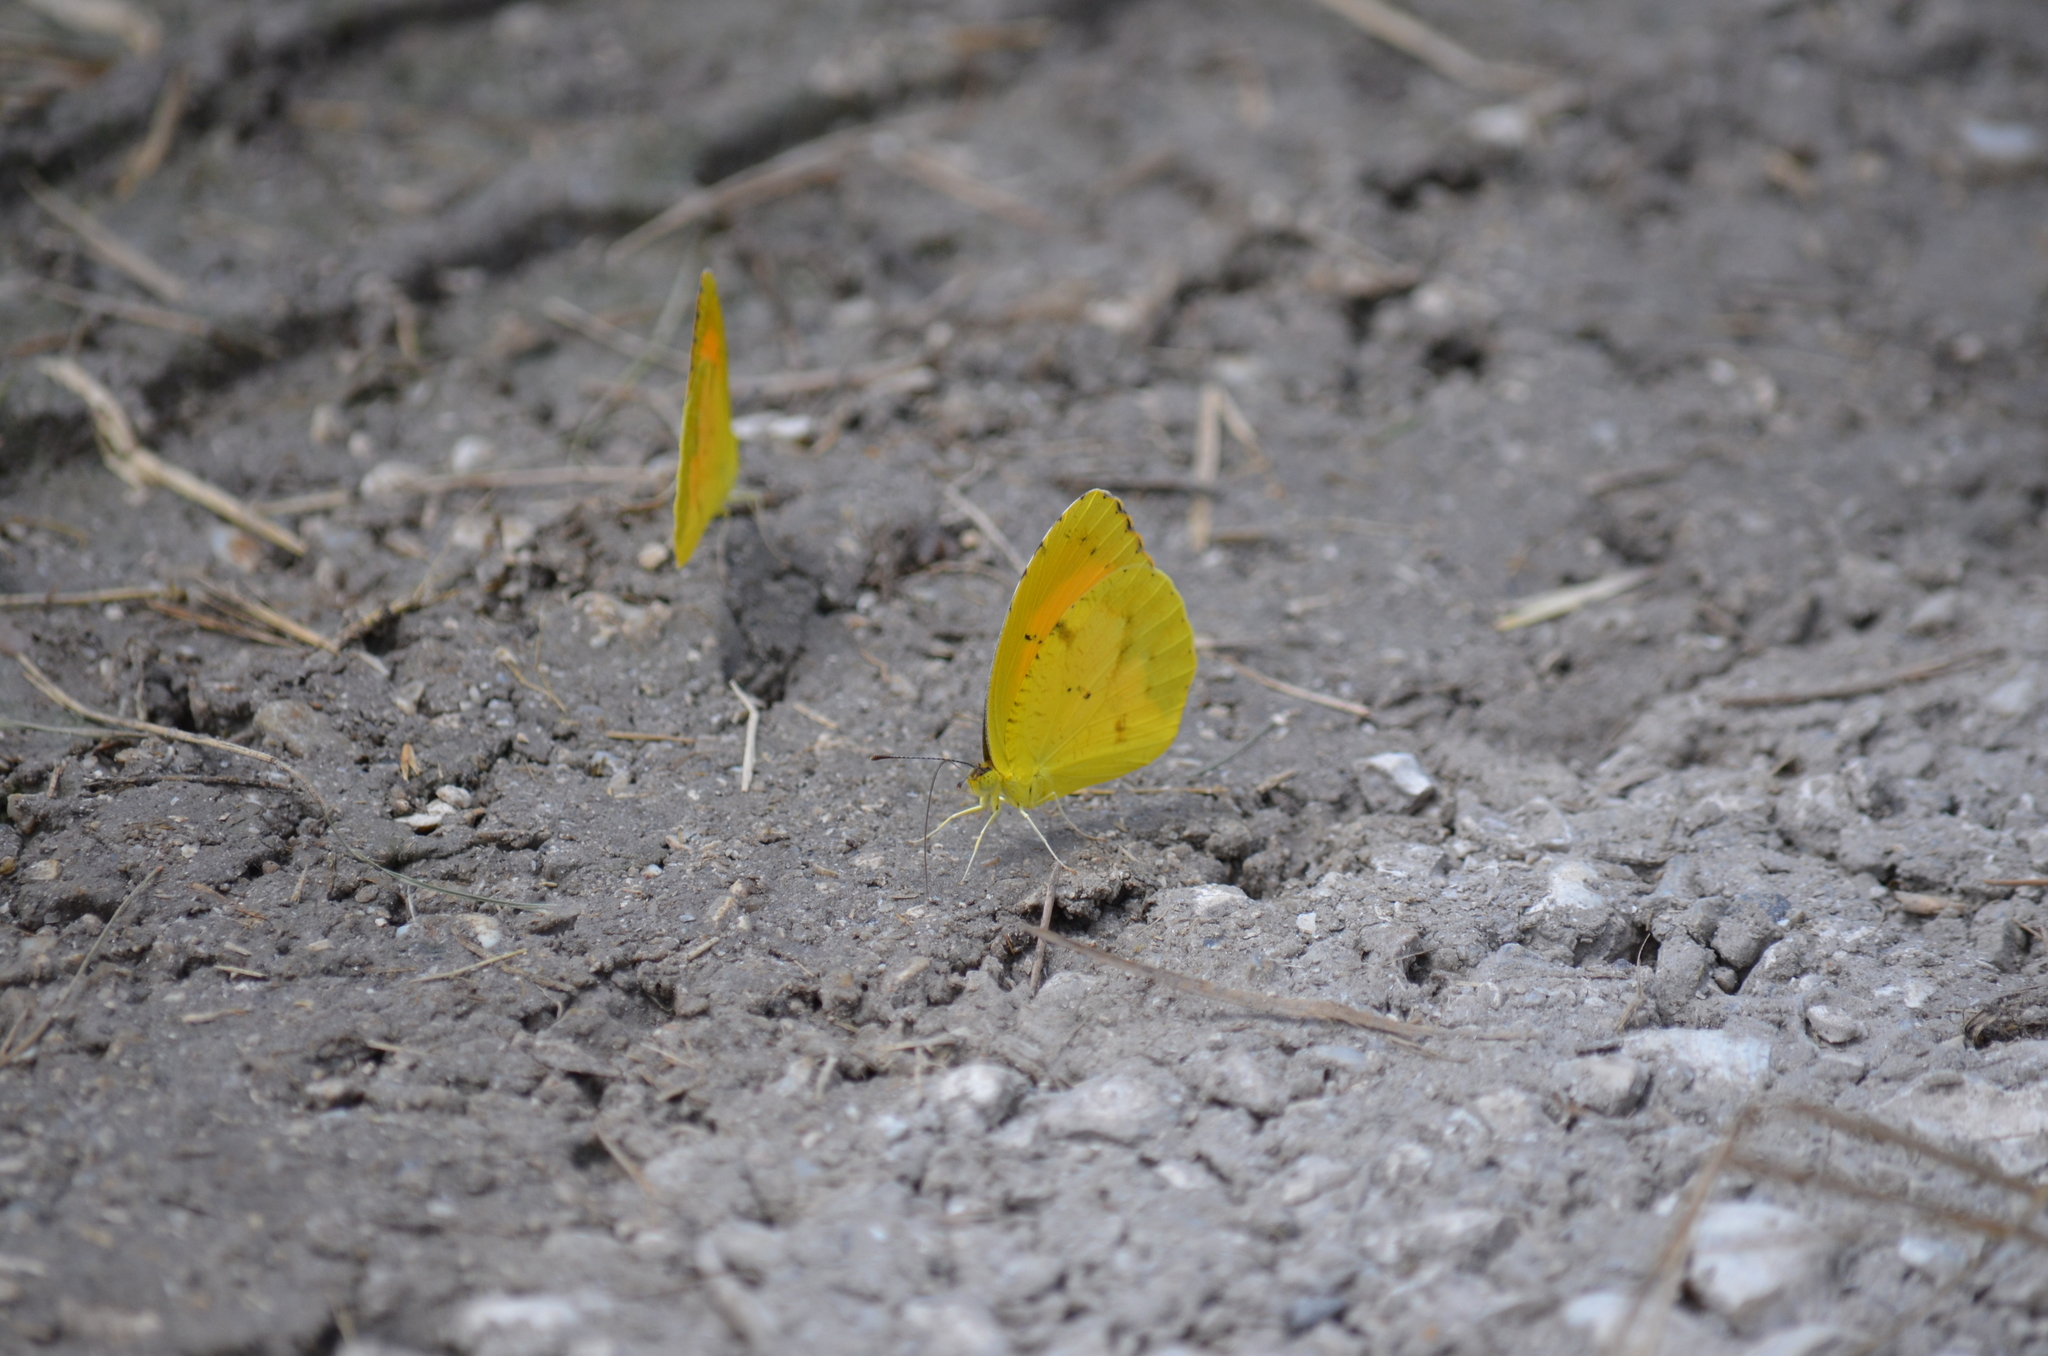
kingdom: Animalia
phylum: Arthropoda
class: Insecta
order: Lepidoptera
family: Pieridae
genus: Abaeis
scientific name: Abaeis nicippe
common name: Sleepy orange
